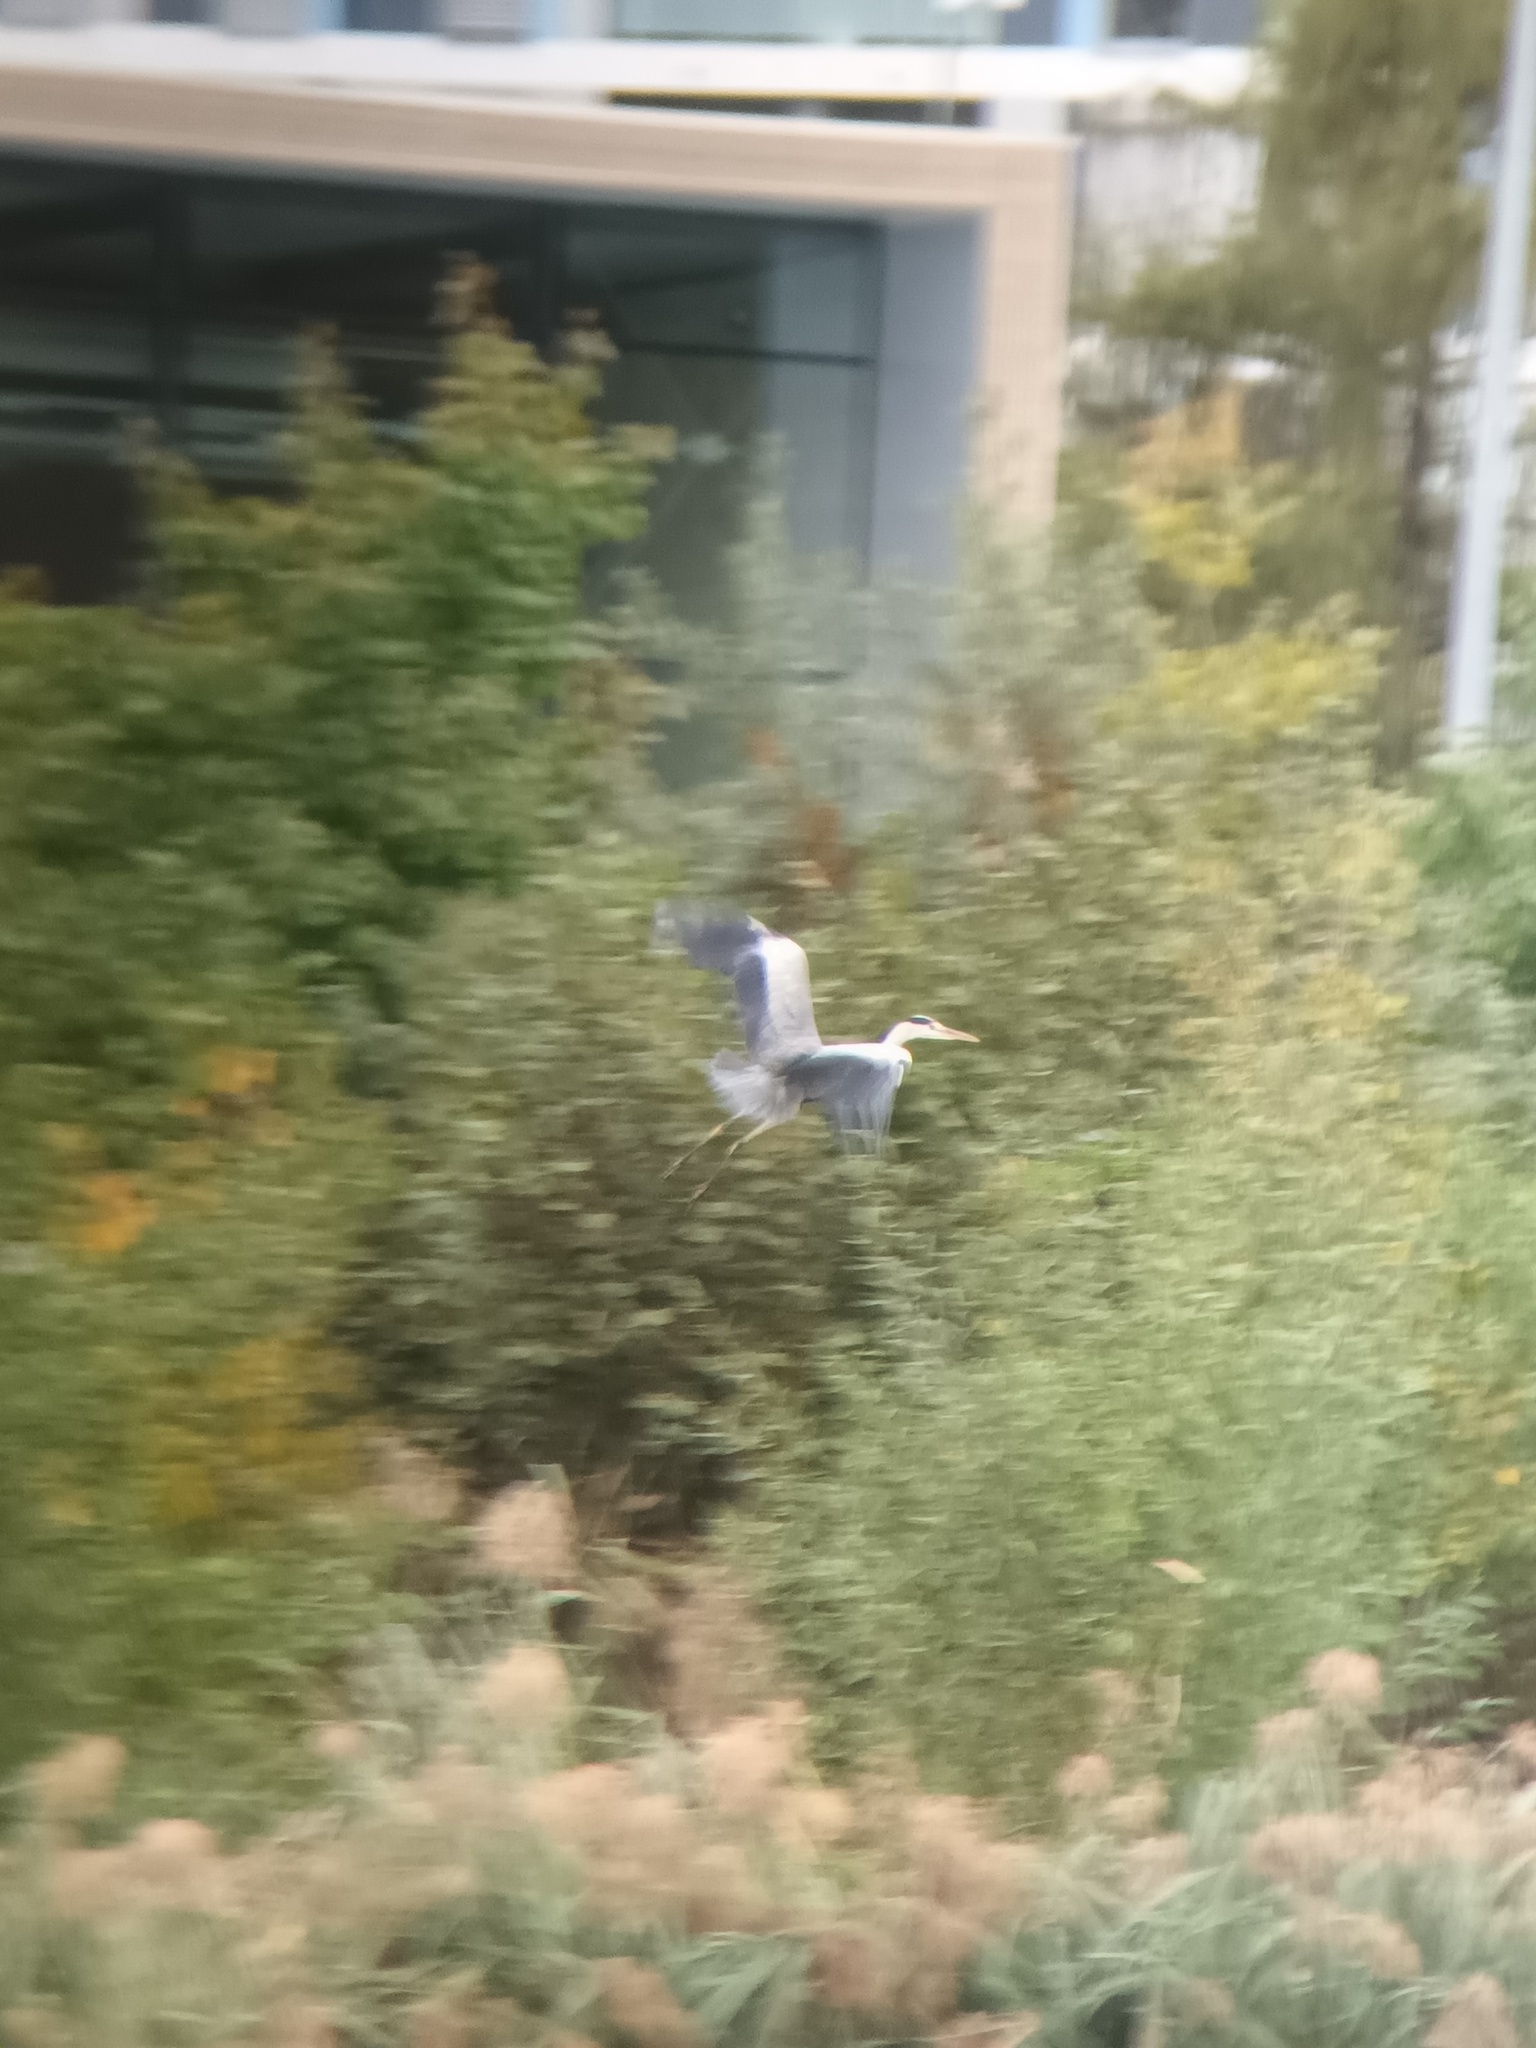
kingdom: Animalia
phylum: Chordata
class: Aves
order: Pelecaniformes
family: Ardeidae
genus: Ardea
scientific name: Ardea cinerea
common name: Grey heron
